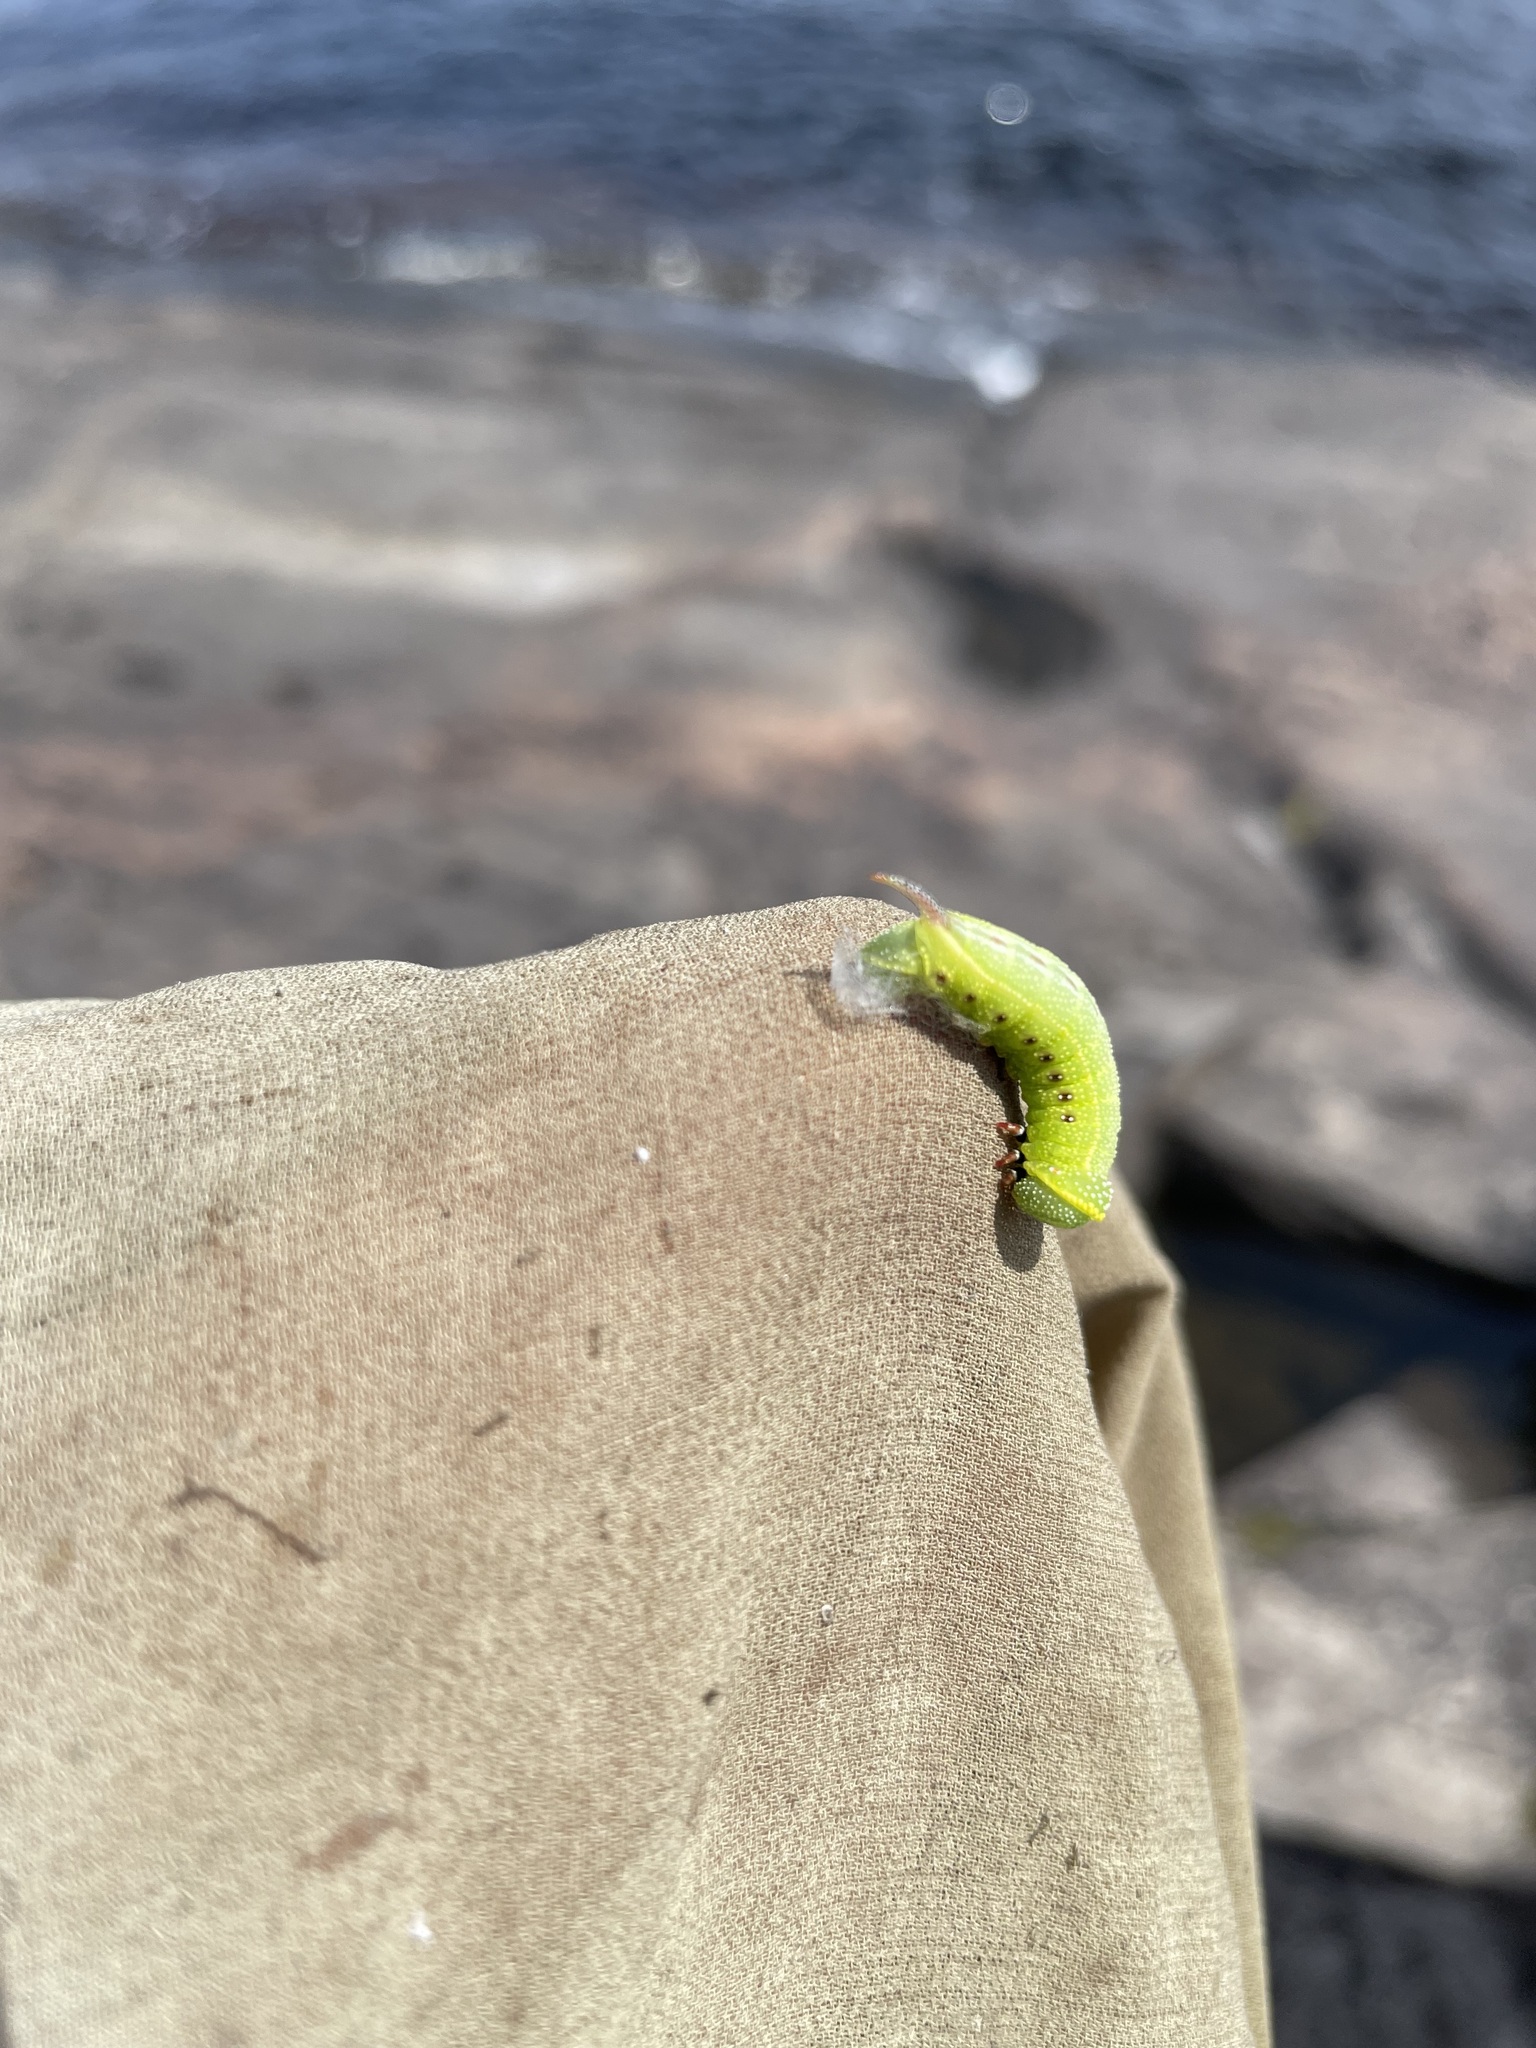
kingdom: Animalia
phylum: Arthropoda
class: Insecta
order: Lepidoptera
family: Sphingidae
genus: Hemaris
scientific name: Hemaris thysbe
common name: Common clear-wing
